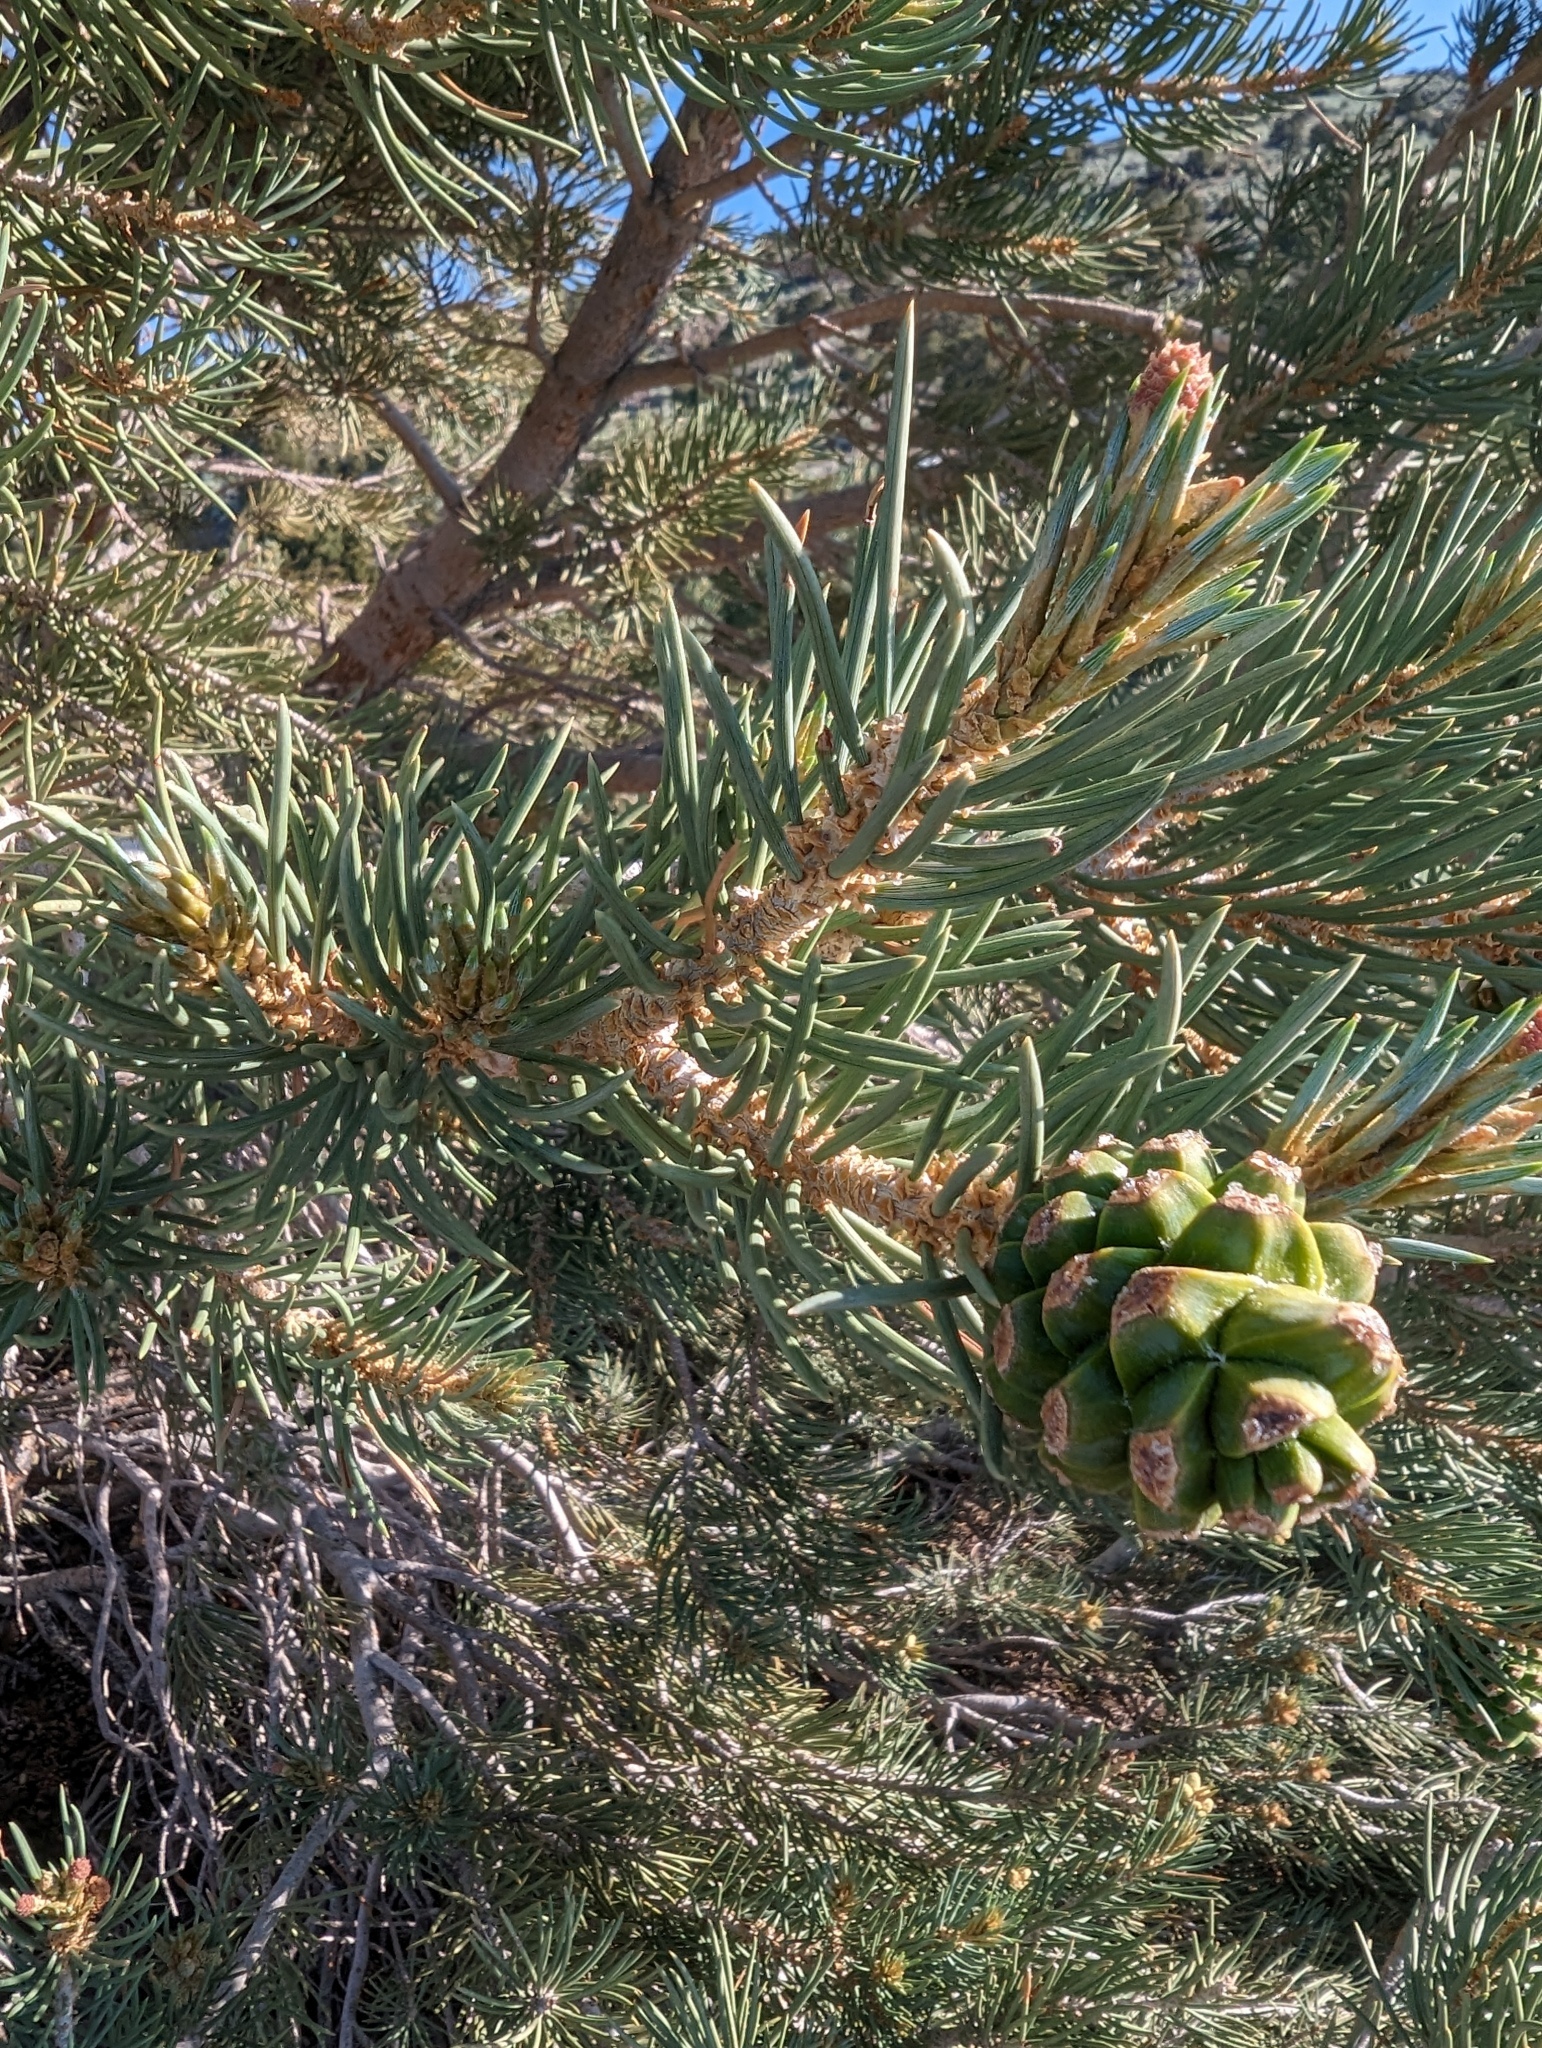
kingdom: Plantae
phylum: Tracheophyta
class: Pinopsida
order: Pinales
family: Pinaceae
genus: Pinus
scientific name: Pinus monophylla
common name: One-leaved nut pine
